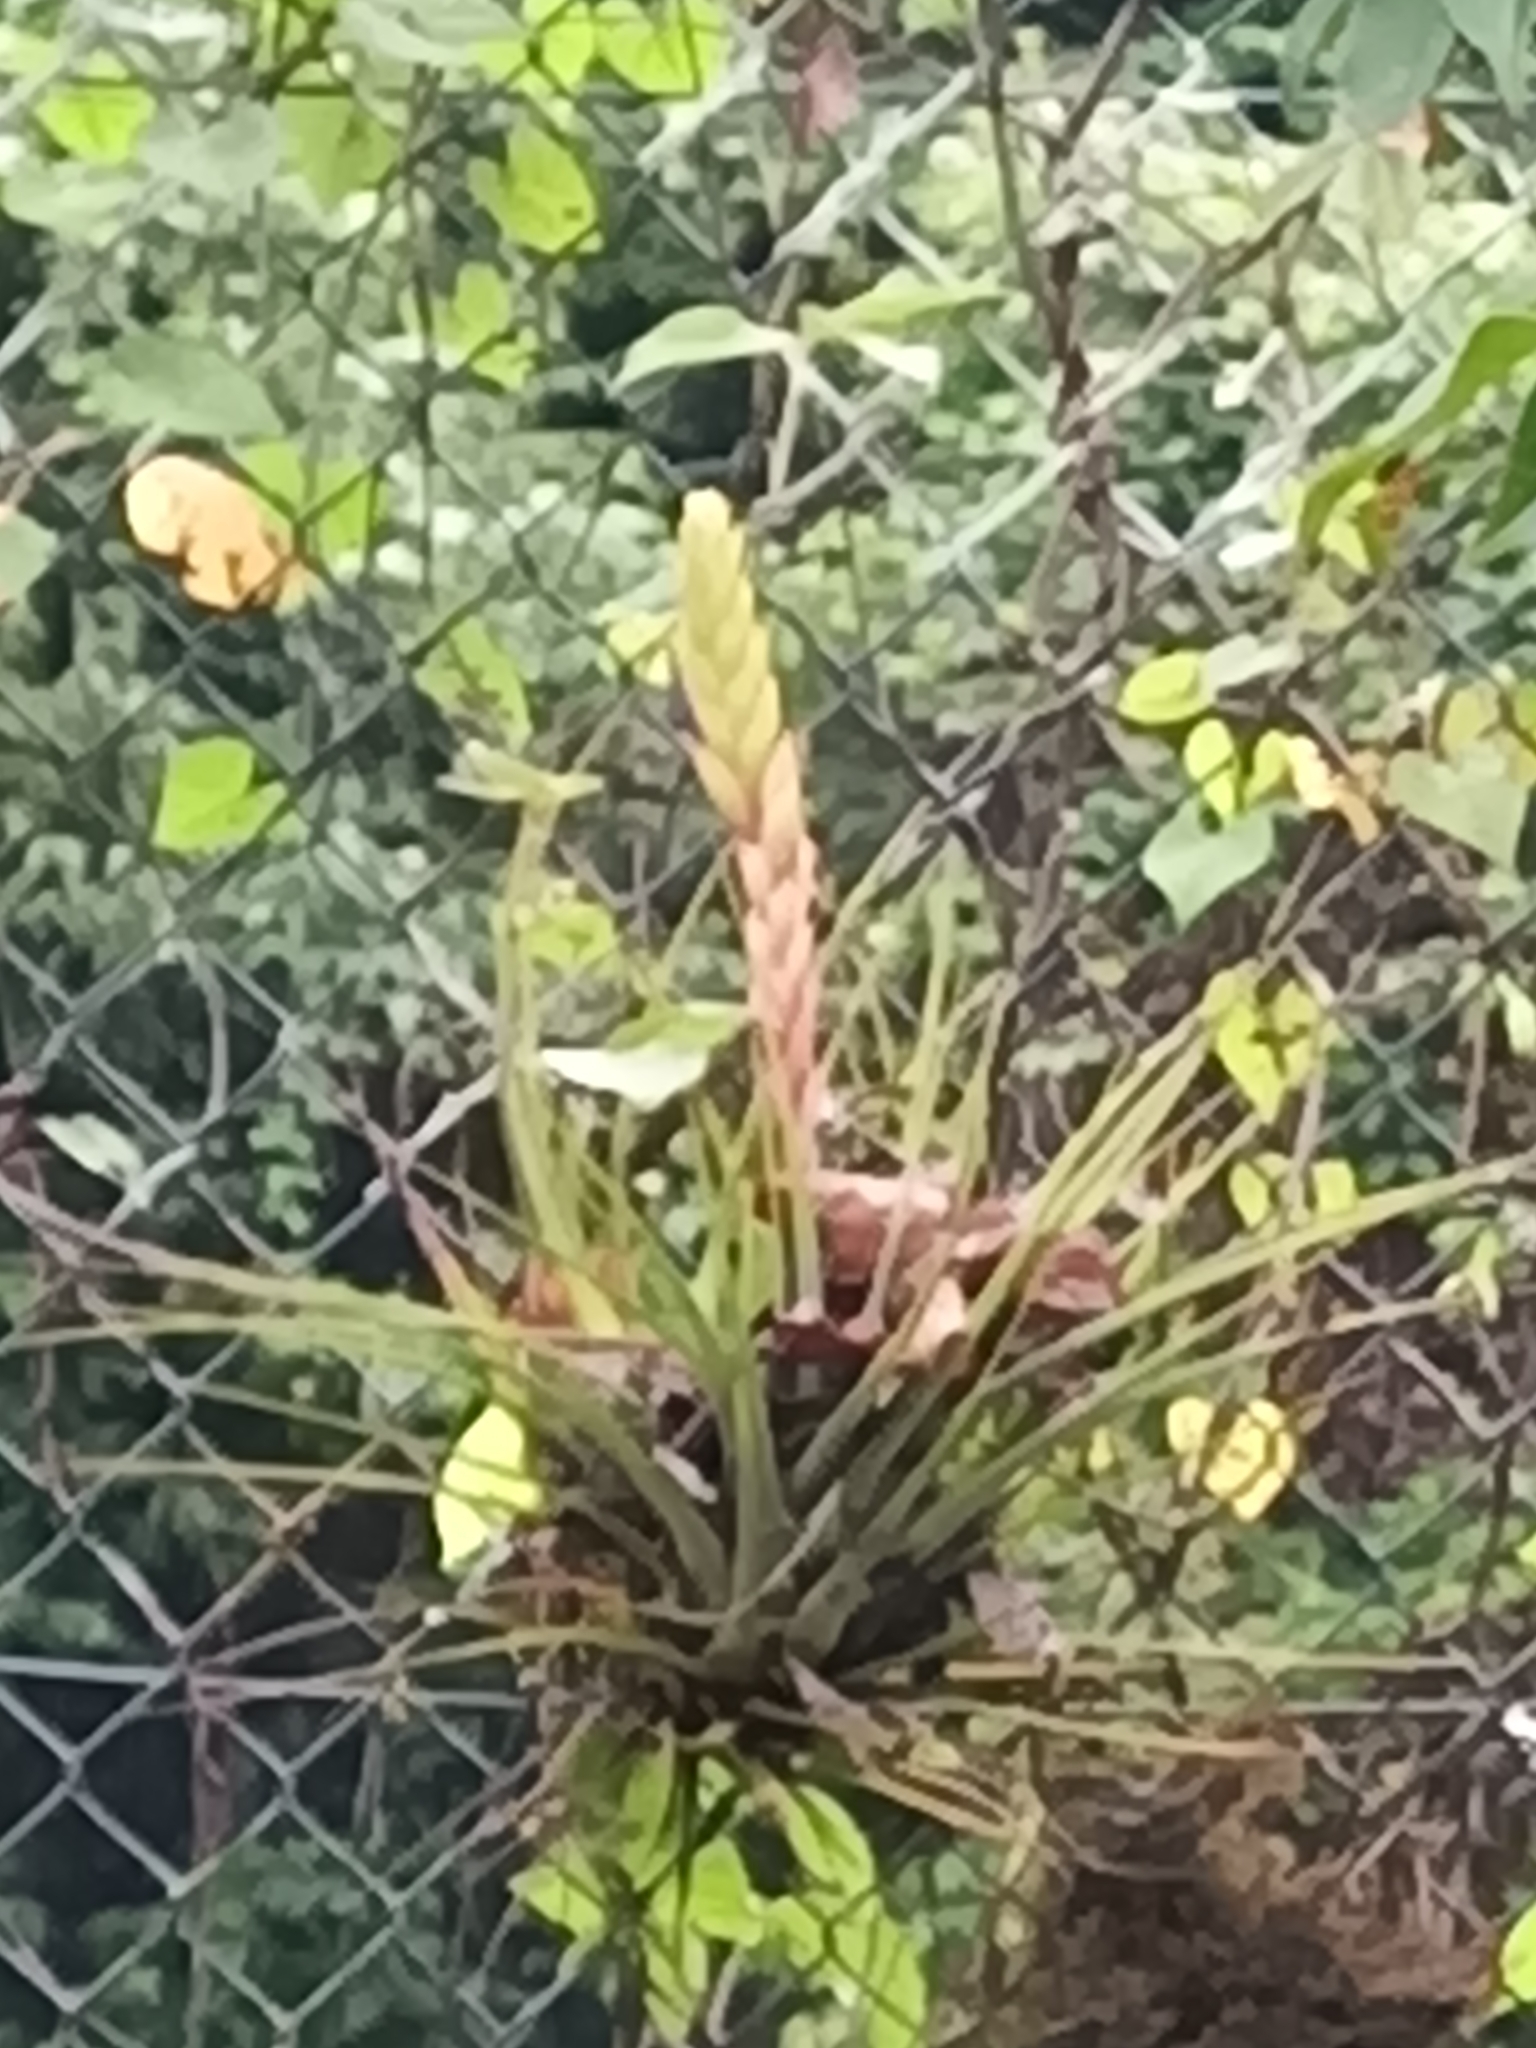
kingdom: Plantae
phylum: Tracheophyta
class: Liliopsida
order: Poales
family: Bromeliaceae
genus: Tillandsia
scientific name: Tillandsia fasciculata
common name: Giant airplant
